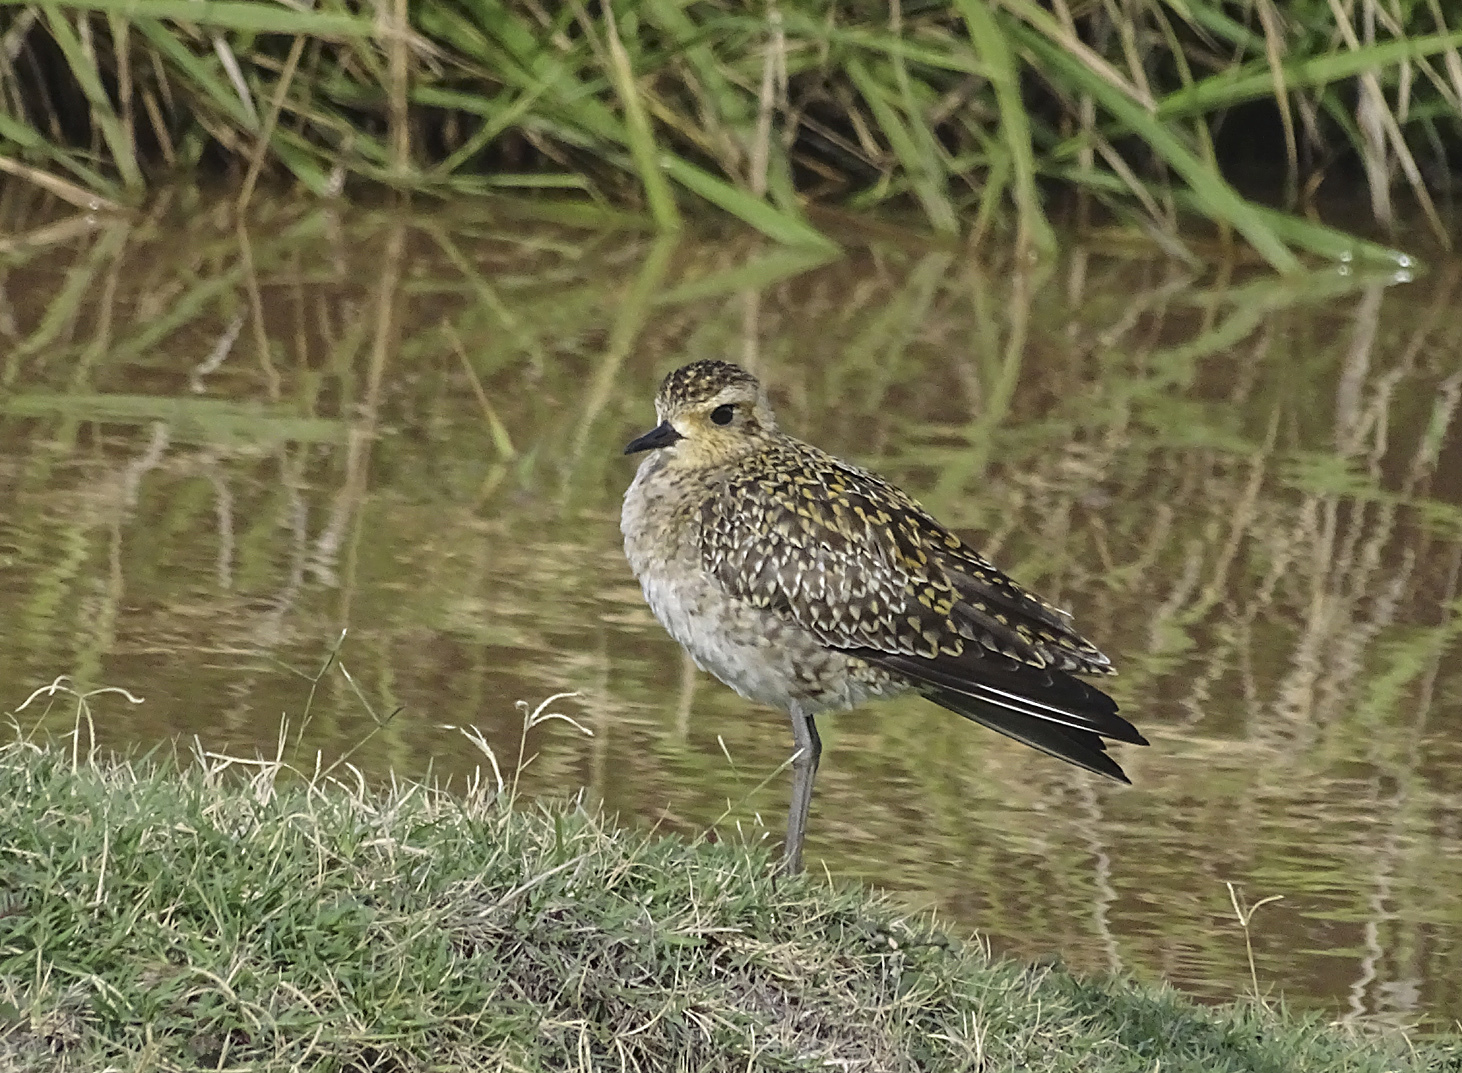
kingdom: Animalia
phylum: Chordata
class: Aves
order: Charadriiformes
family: Charadriidae
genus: Pluvialis
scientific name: Pluvialis fulva
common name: Pacific golden plover
